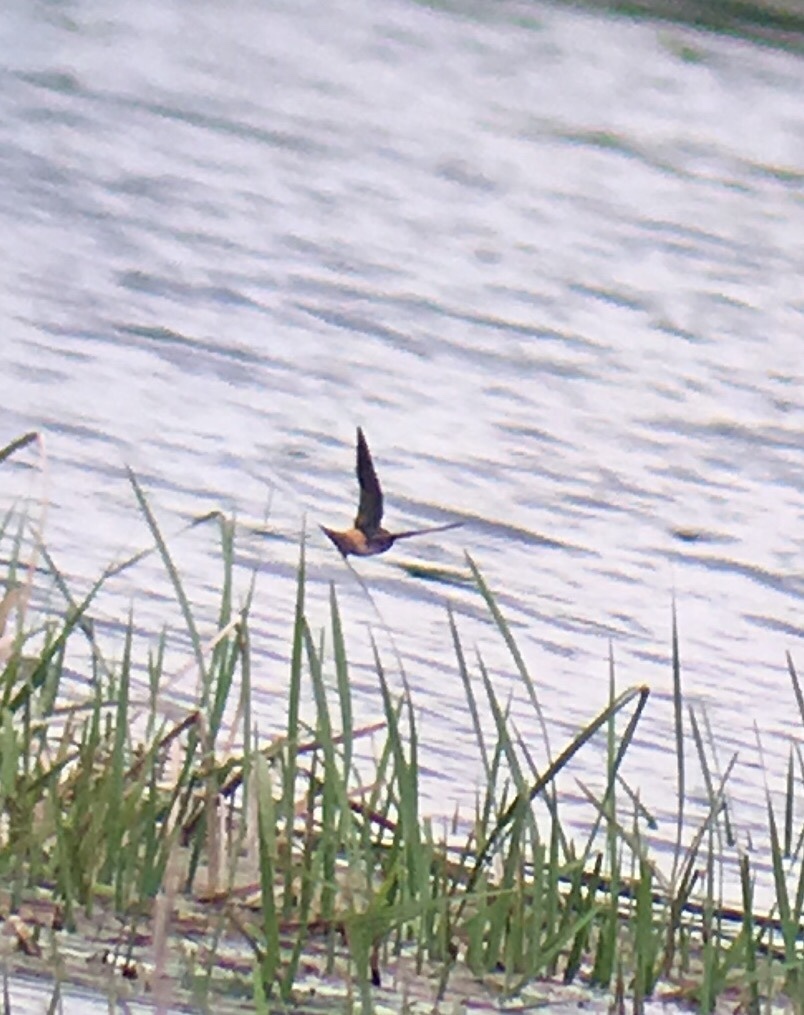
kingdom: Animalia
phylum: Chordata
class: Aves
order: Passeriformes
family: Hirundinidae
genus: Petrochelidon
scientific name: Petrochelidon pyrrhonota
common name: American cliff swallow
